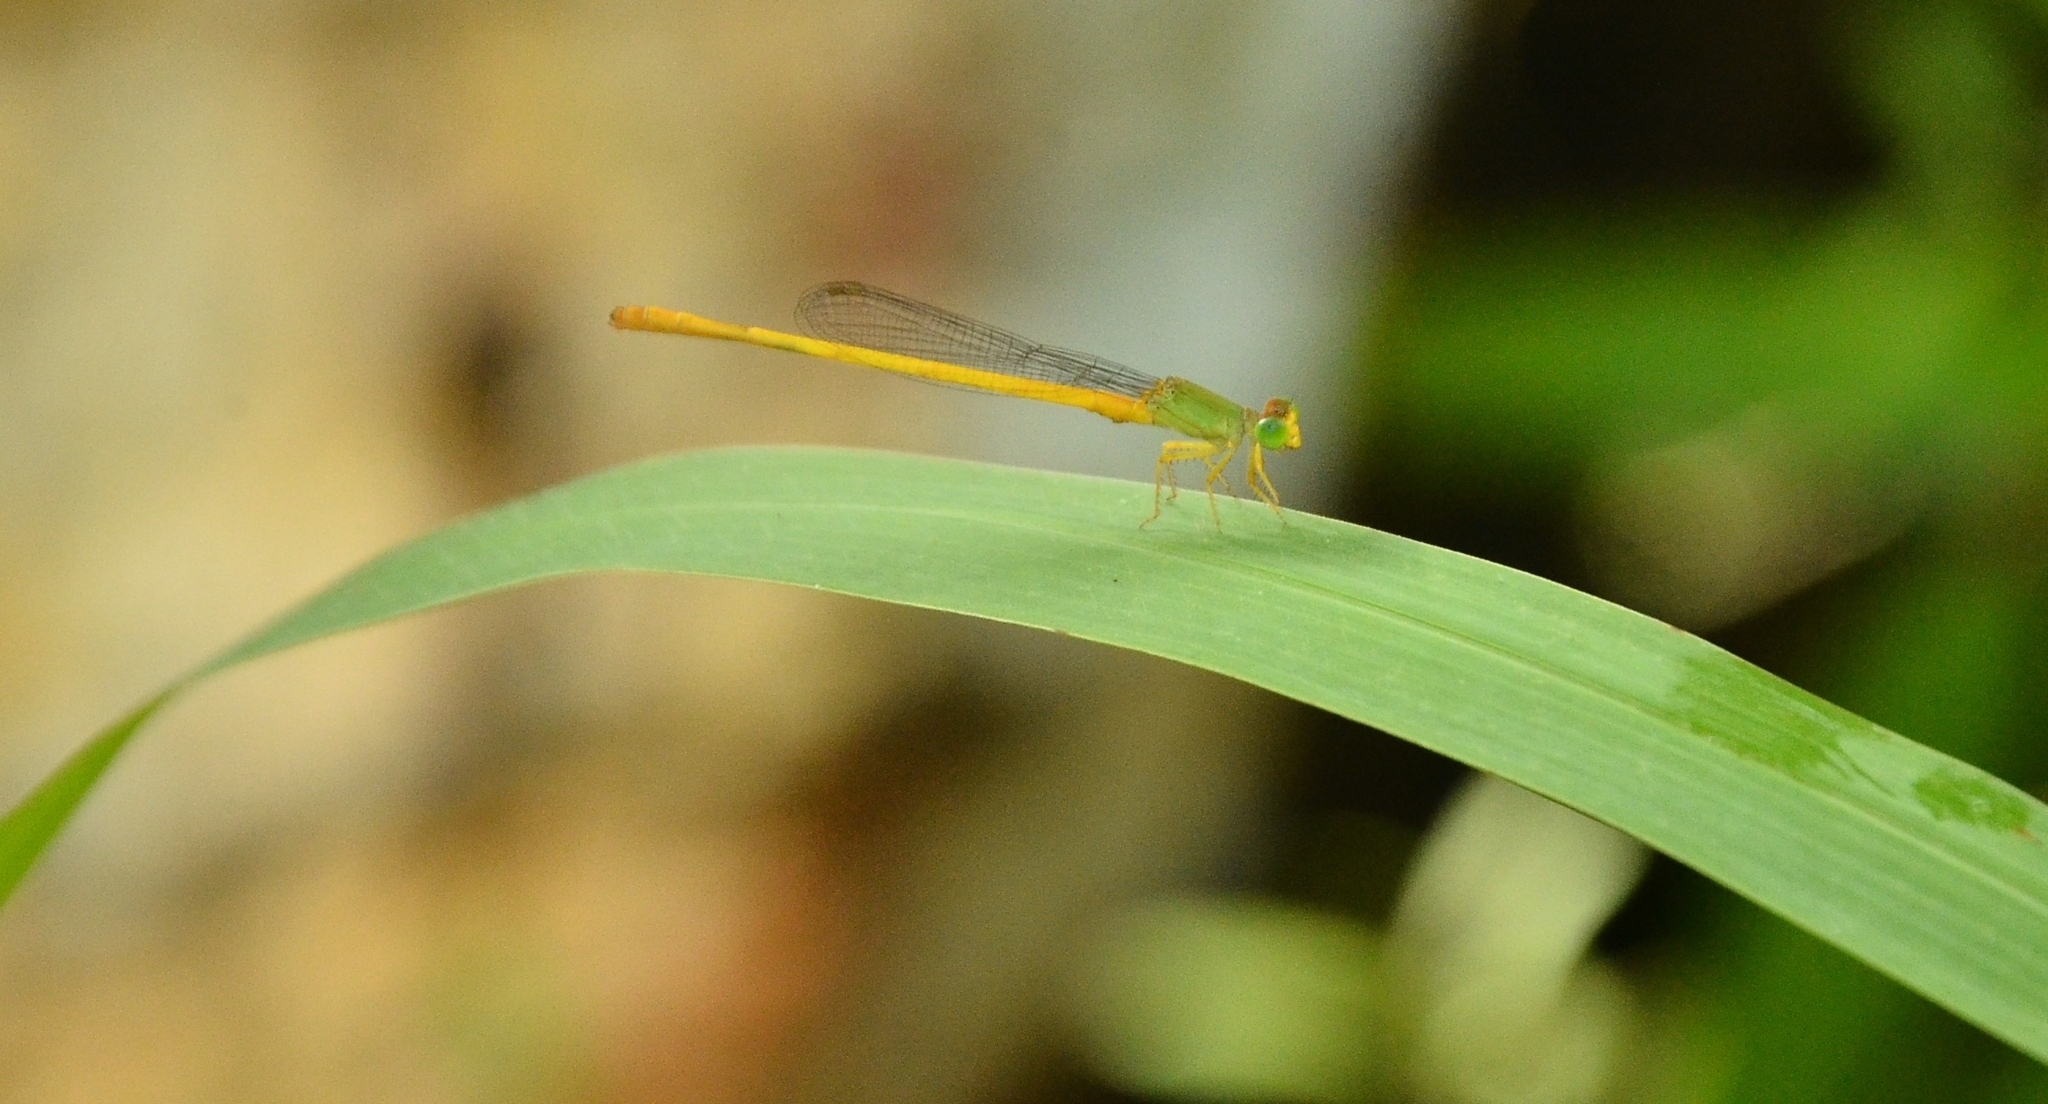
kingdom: Animalia
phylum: Arthropoda
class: Insecta
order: Odonata
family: Coenagrionidae
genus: Ceriagrion
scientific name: Ceriagrion coromandelianum
